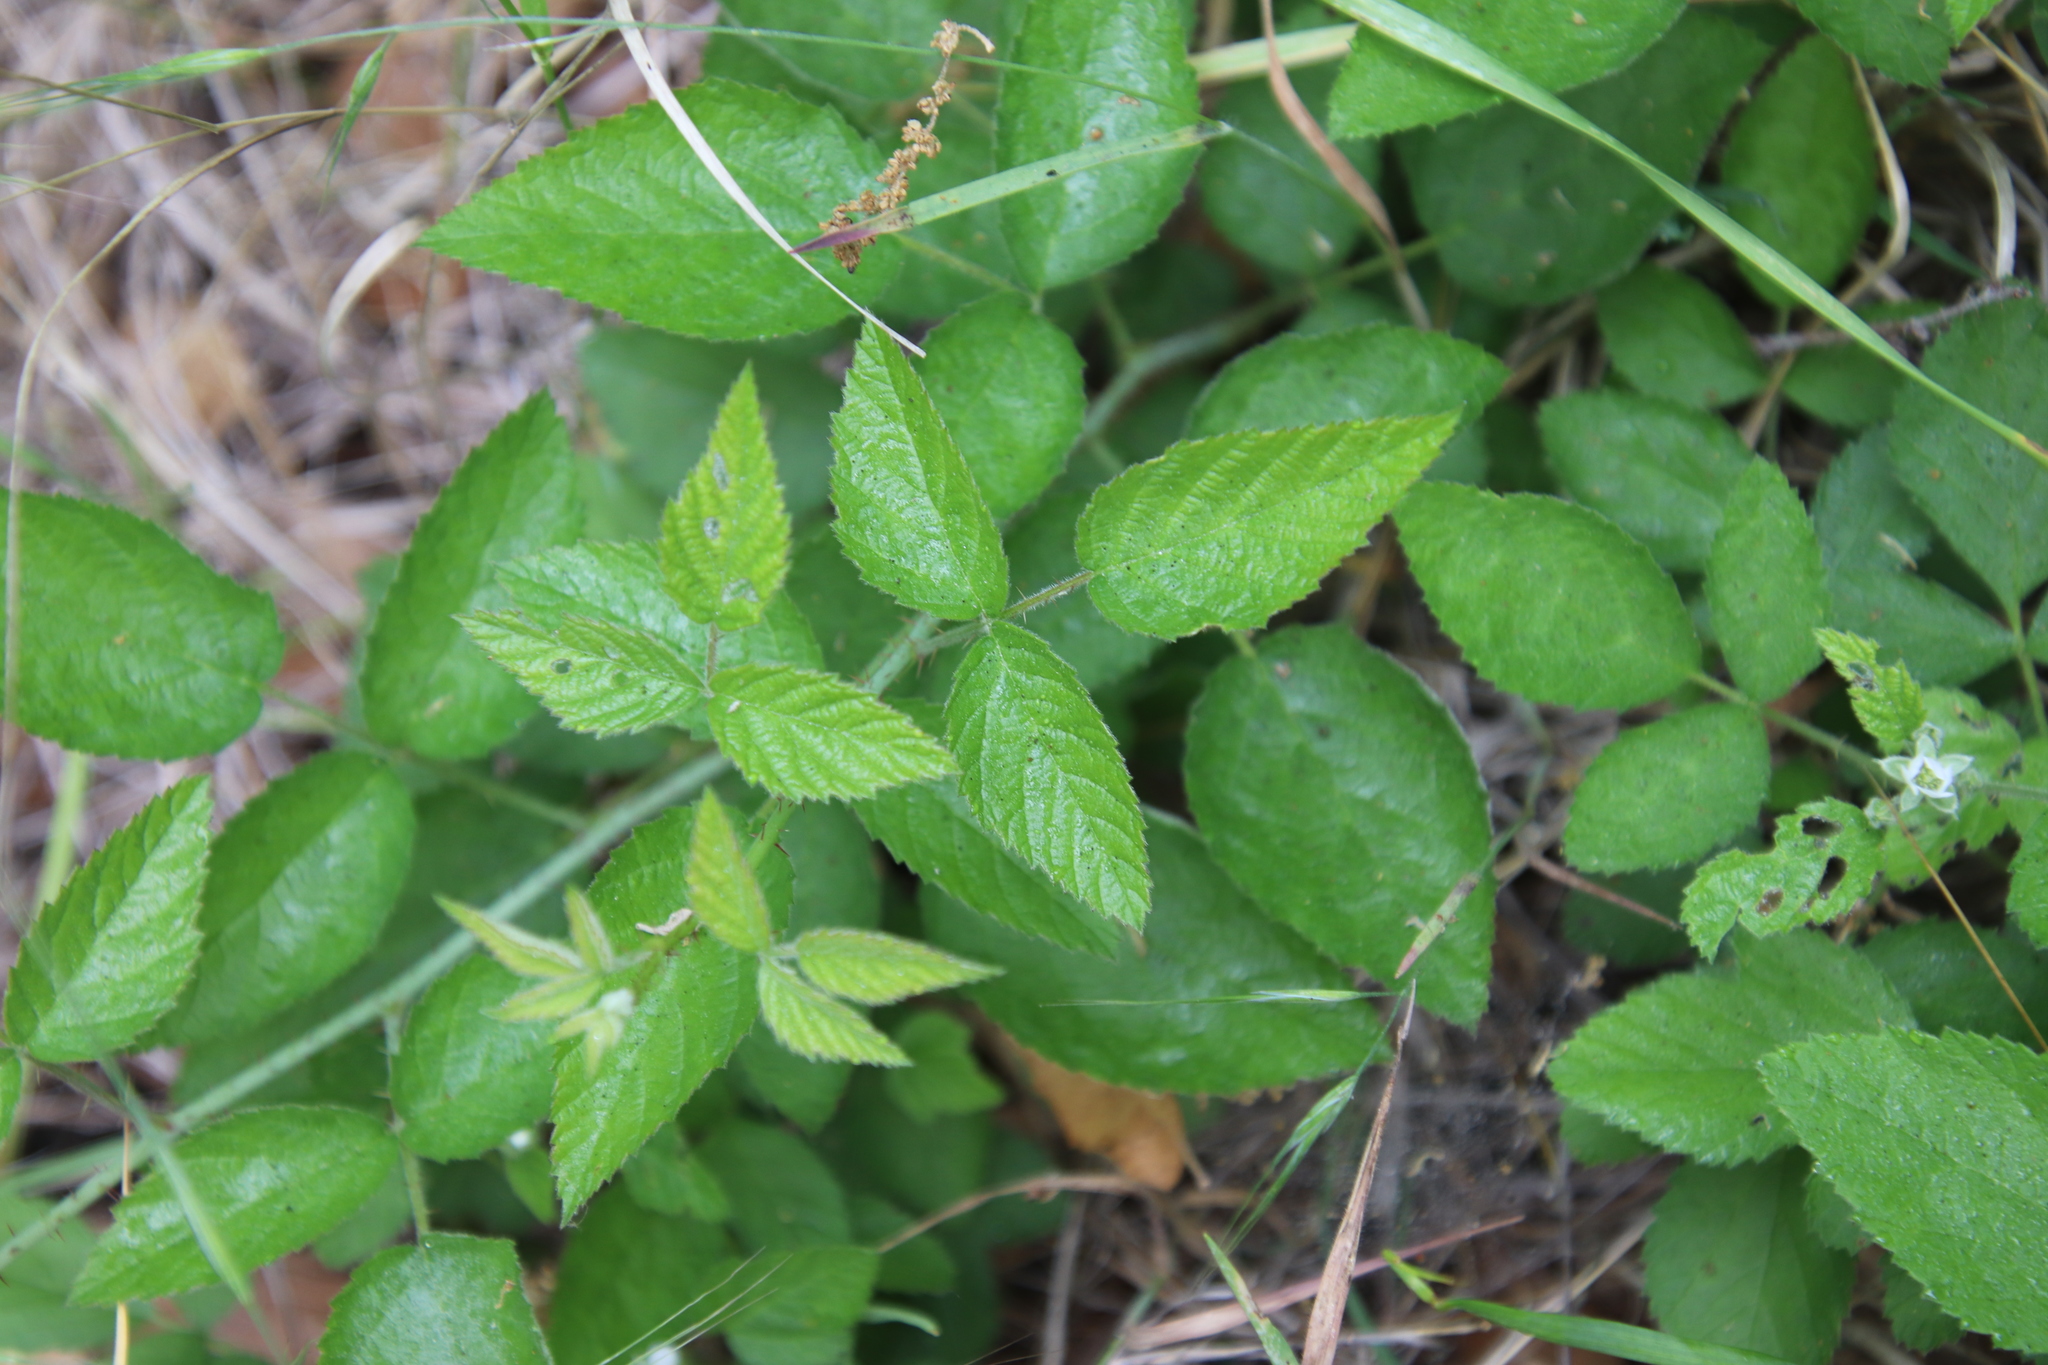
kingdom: Plantae
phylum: Tracheophyta
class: Magnoliopsida
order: Rosales
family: Rosaceae
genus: Rubus
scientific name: Rubus ursinus
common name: Pacific blackberry
